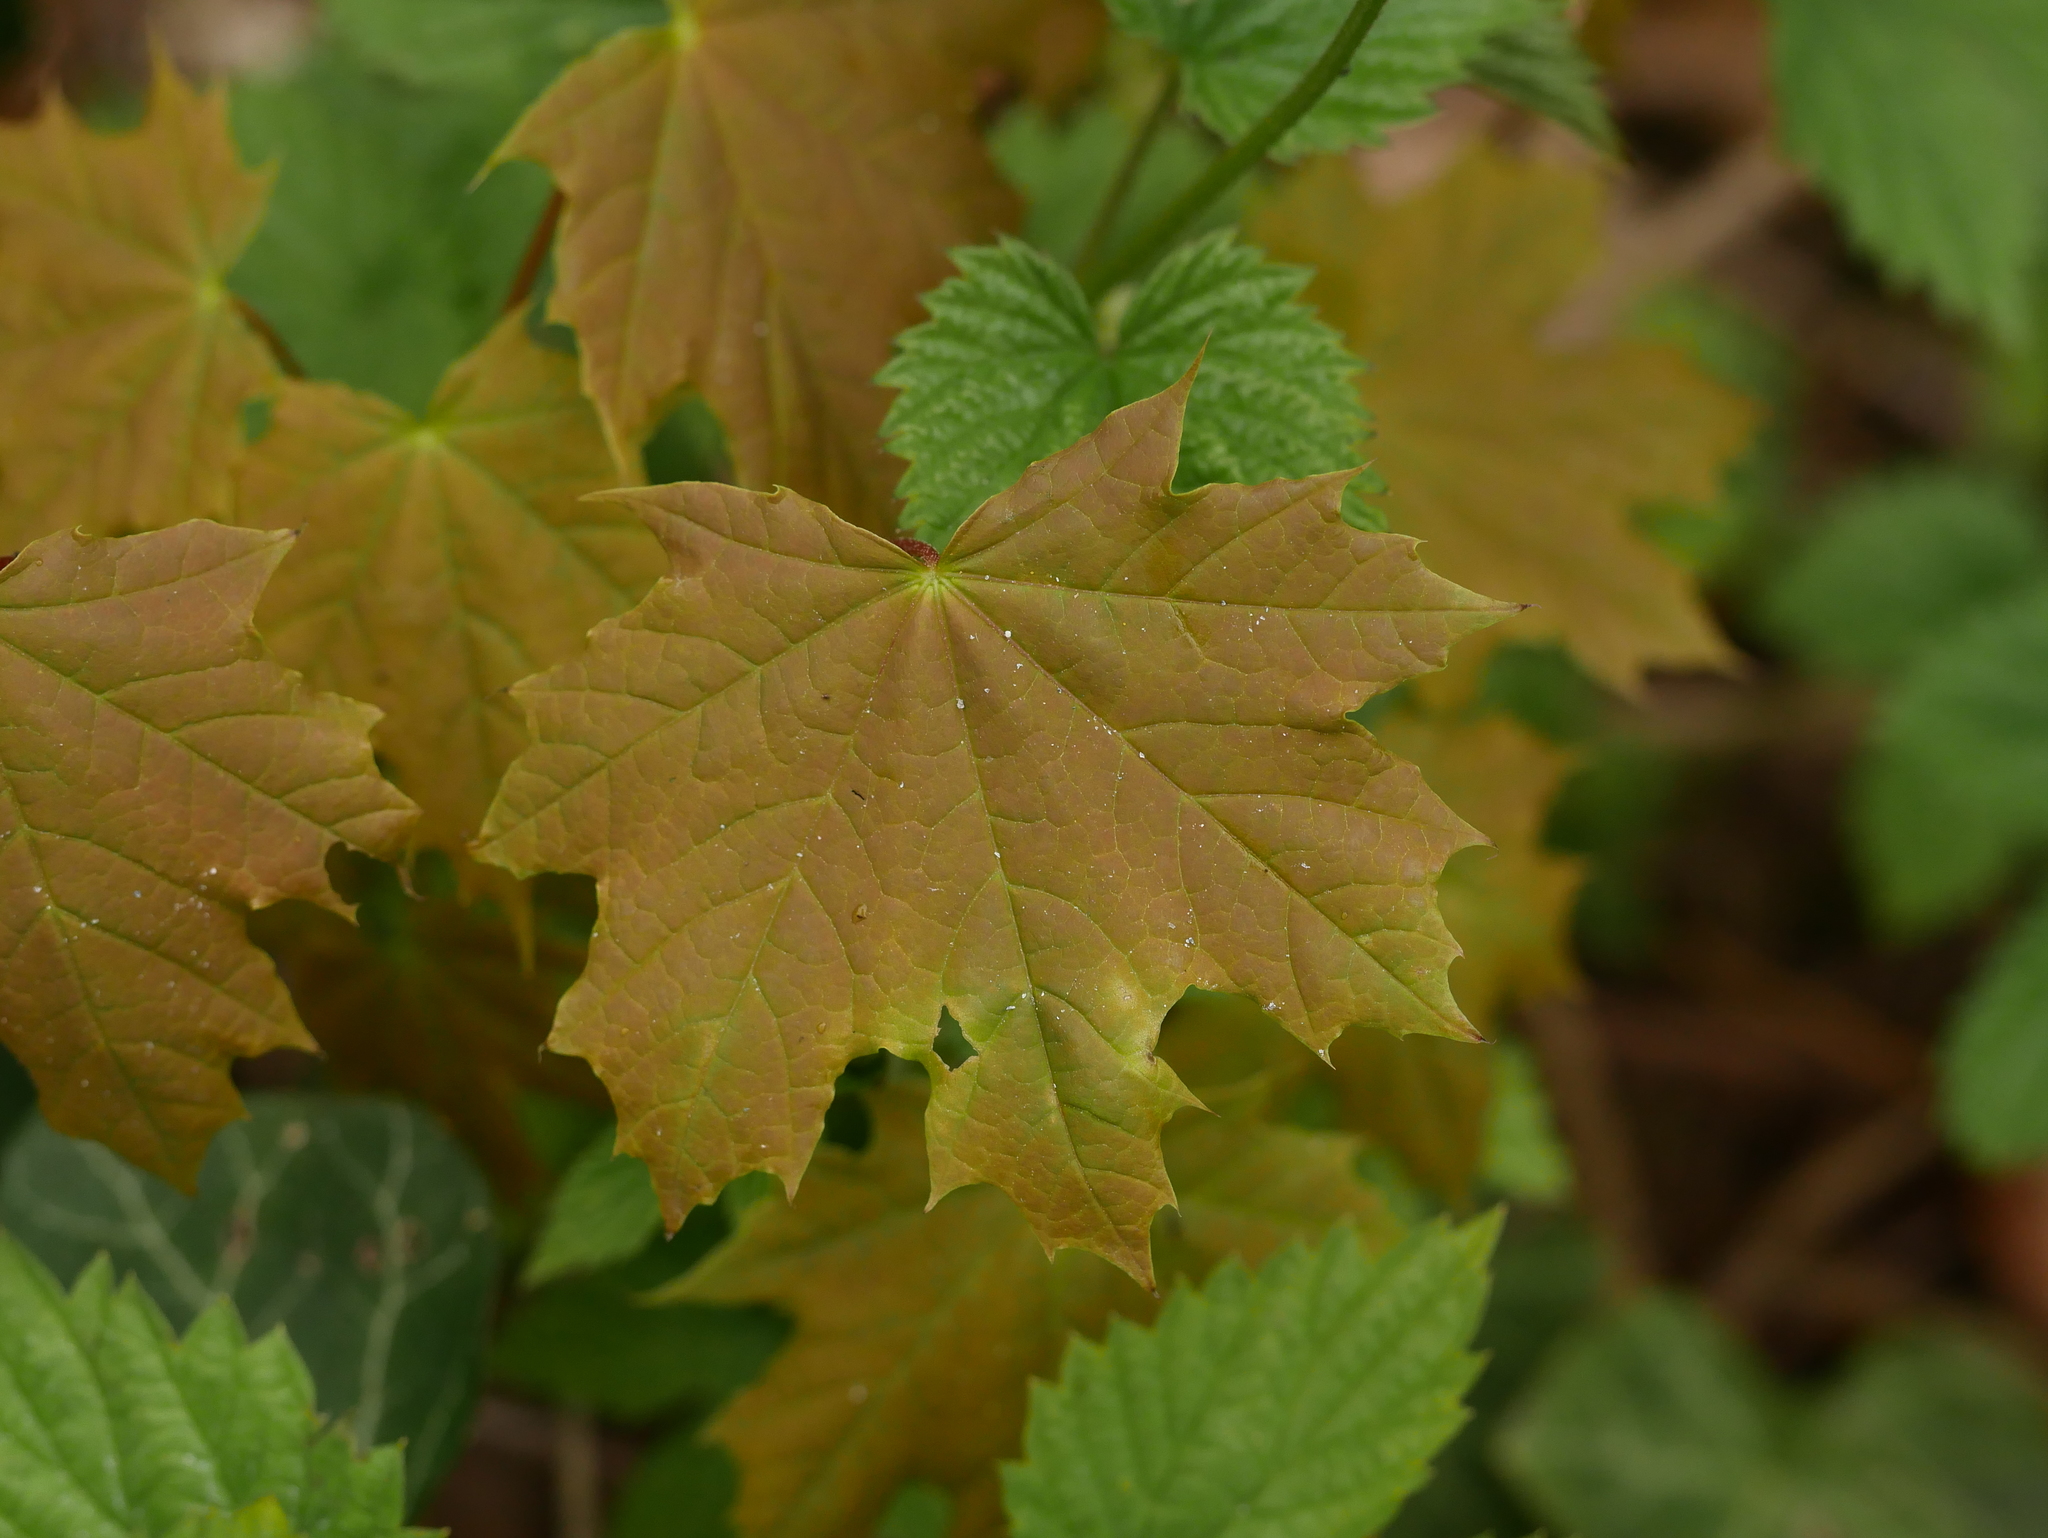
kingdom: Plantae
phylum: Tracheophyta
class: Magnoliopsida
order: Sapindales
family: Sapindaceae
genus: Acer
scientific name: Acer platanoides
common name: Norway maple
